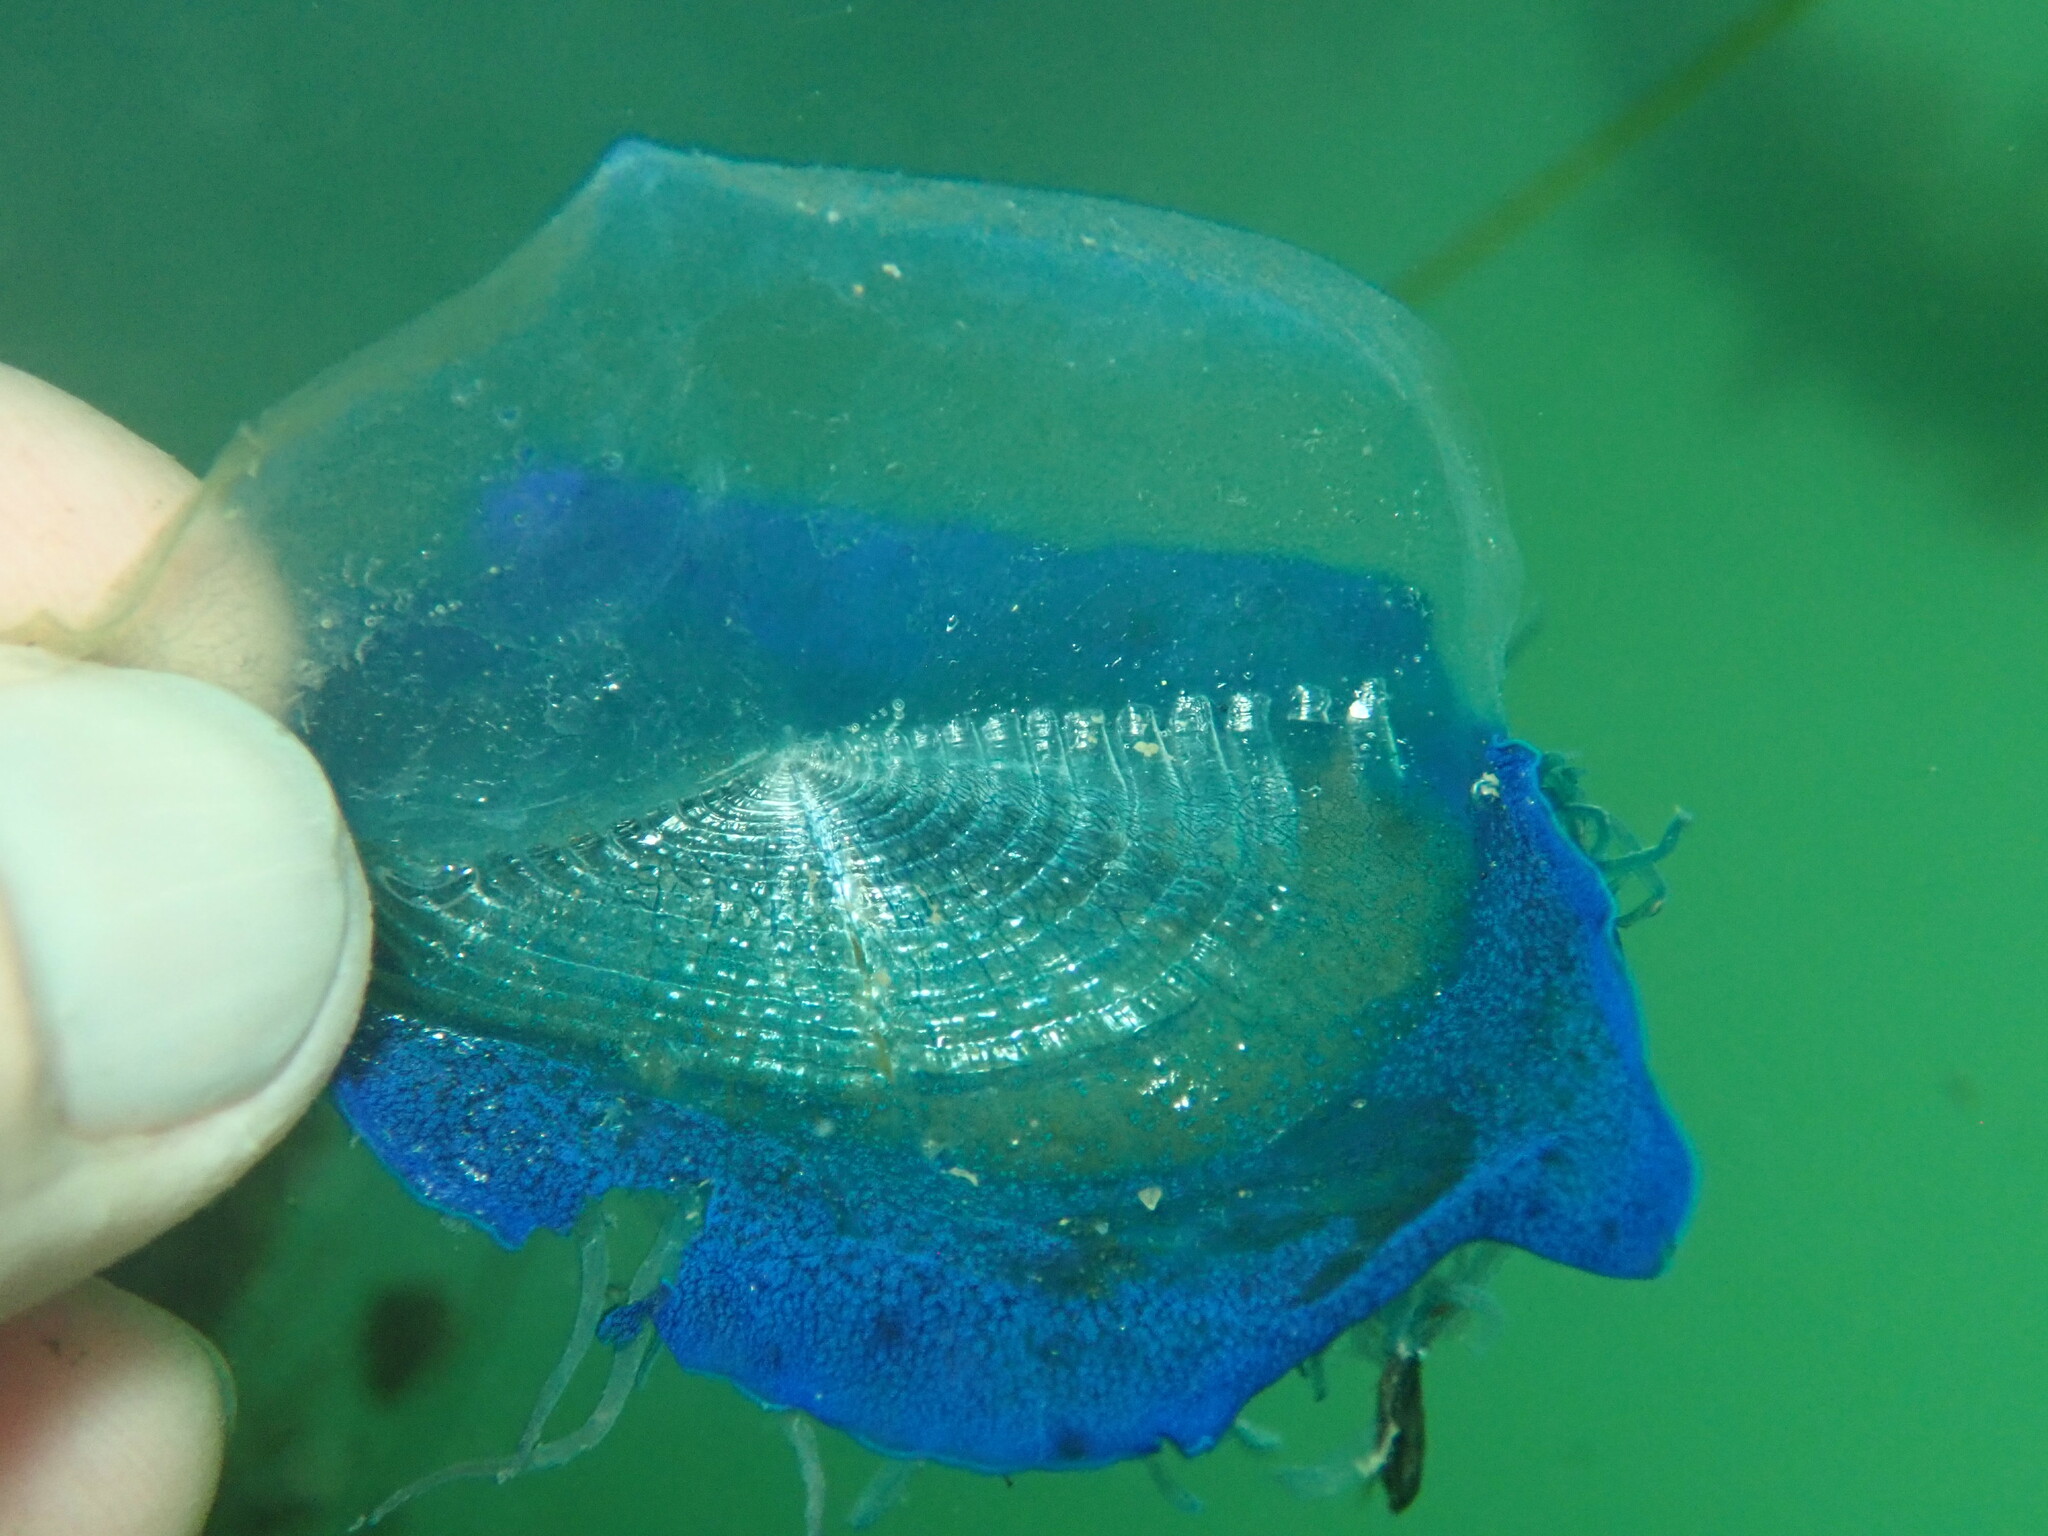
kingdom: Animalia
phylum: Cnidaria
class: Hydrozoa
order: Anthoathecata
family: Porpitidae
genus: Velella
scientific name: Velella velella
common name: By-the-wind-sailor
